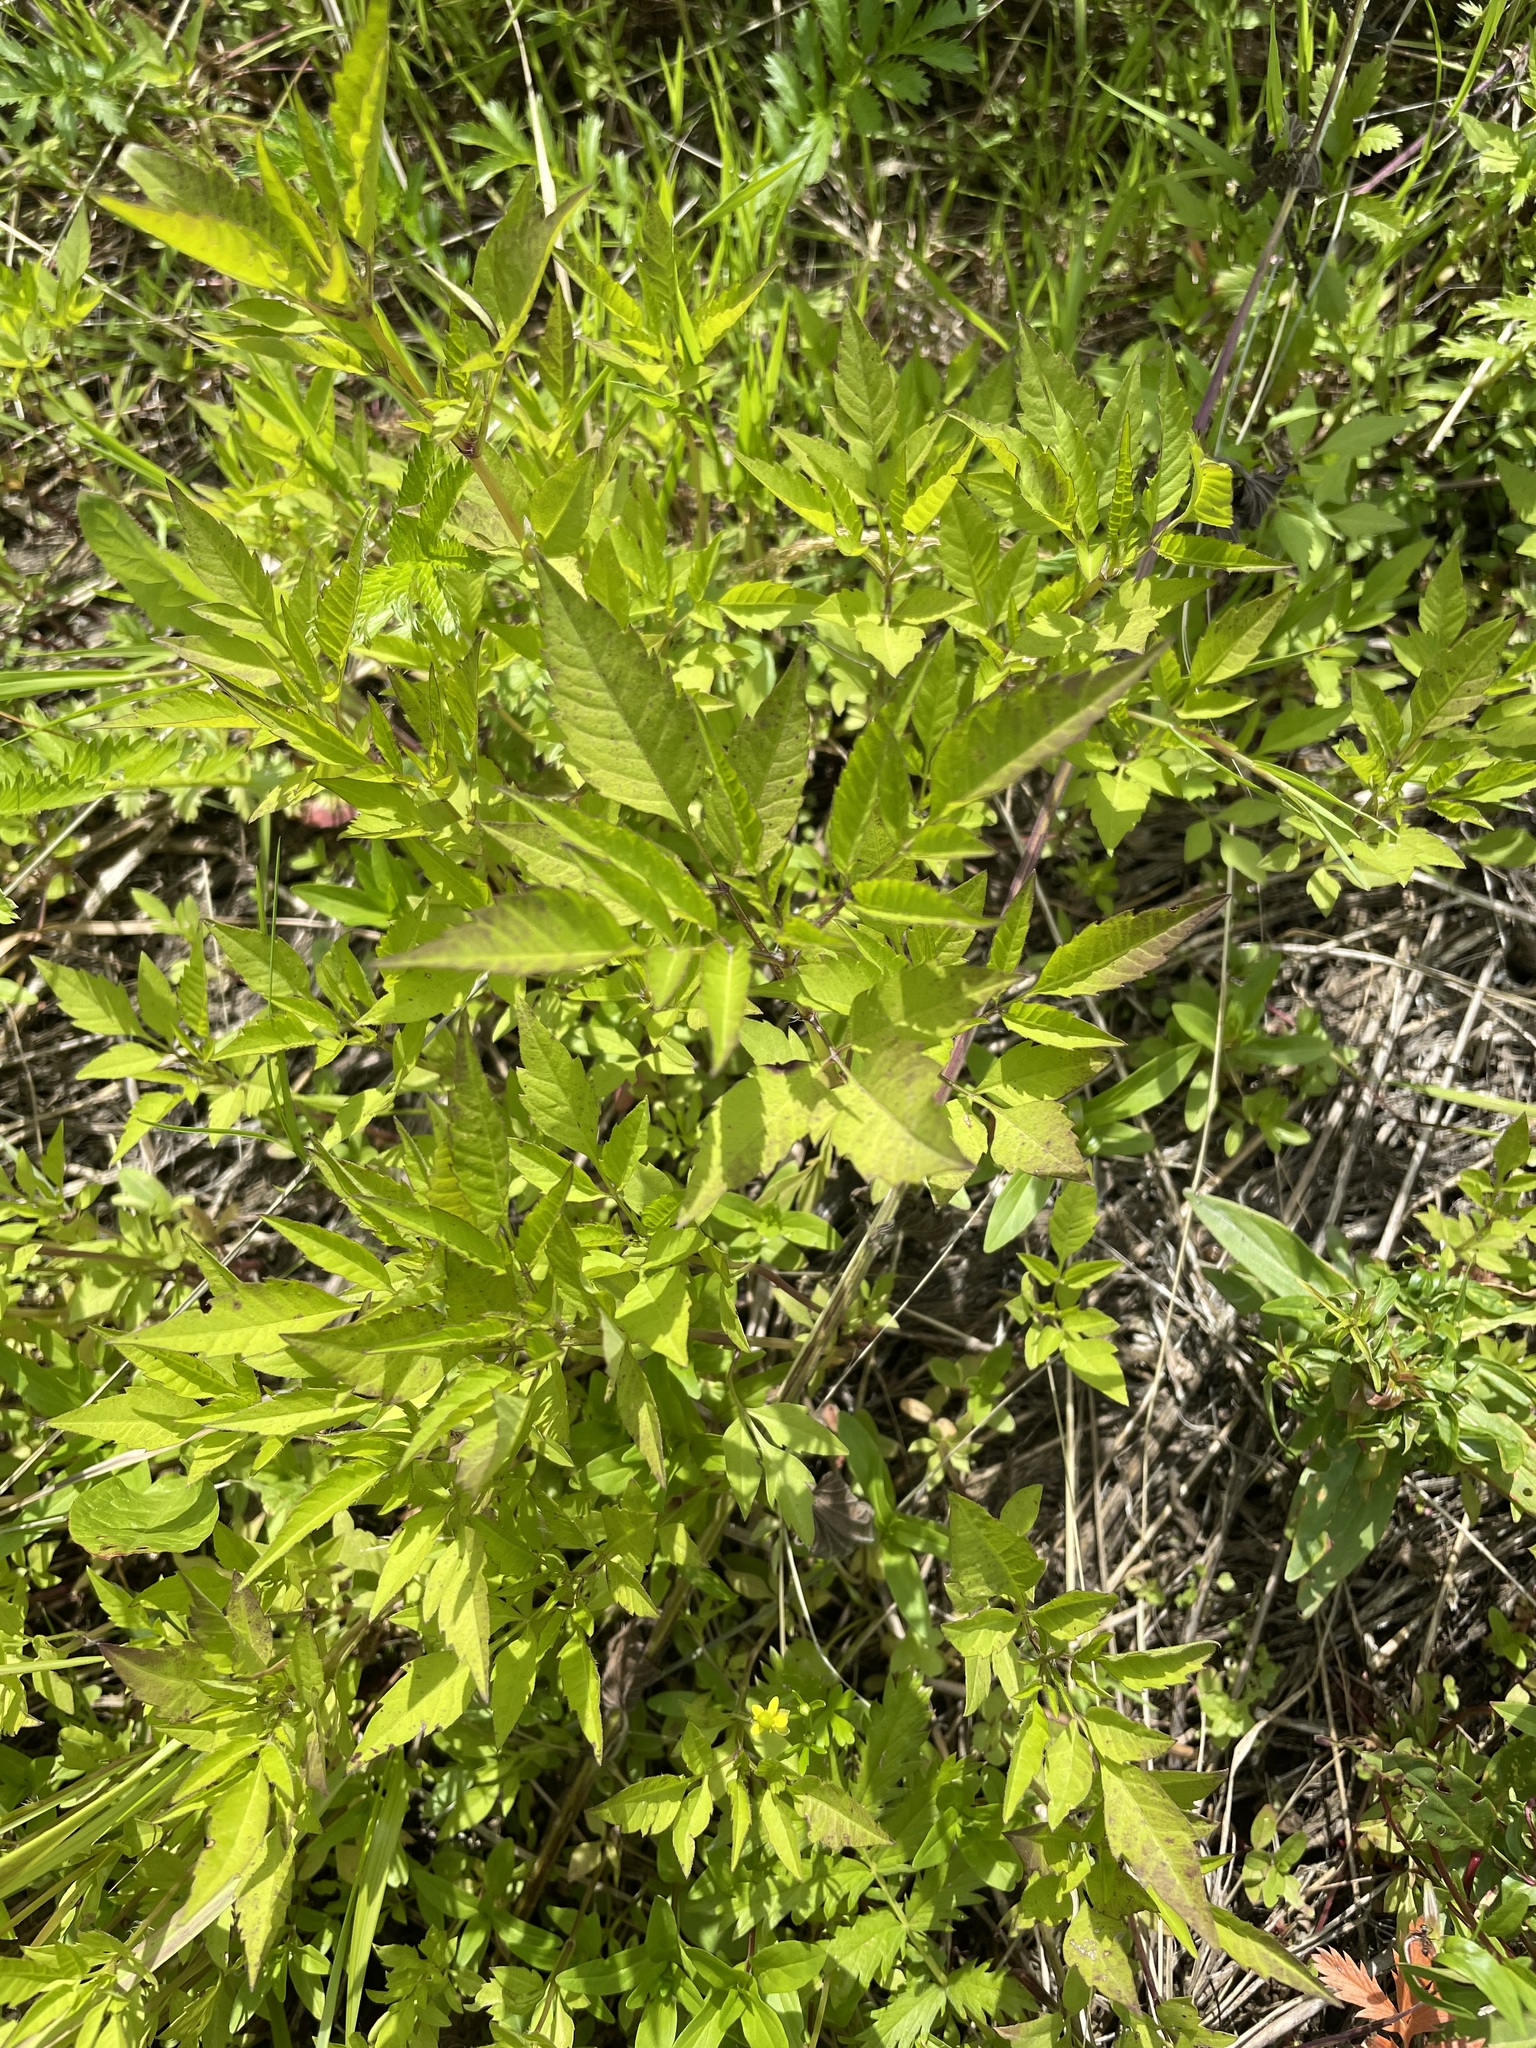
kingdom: Plantae
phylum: Tracheophyta
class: Magnoliopsida
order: Asterales
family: Asteraceae
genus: Bidens
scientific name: Bidens frondosa
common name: Beggarticks
